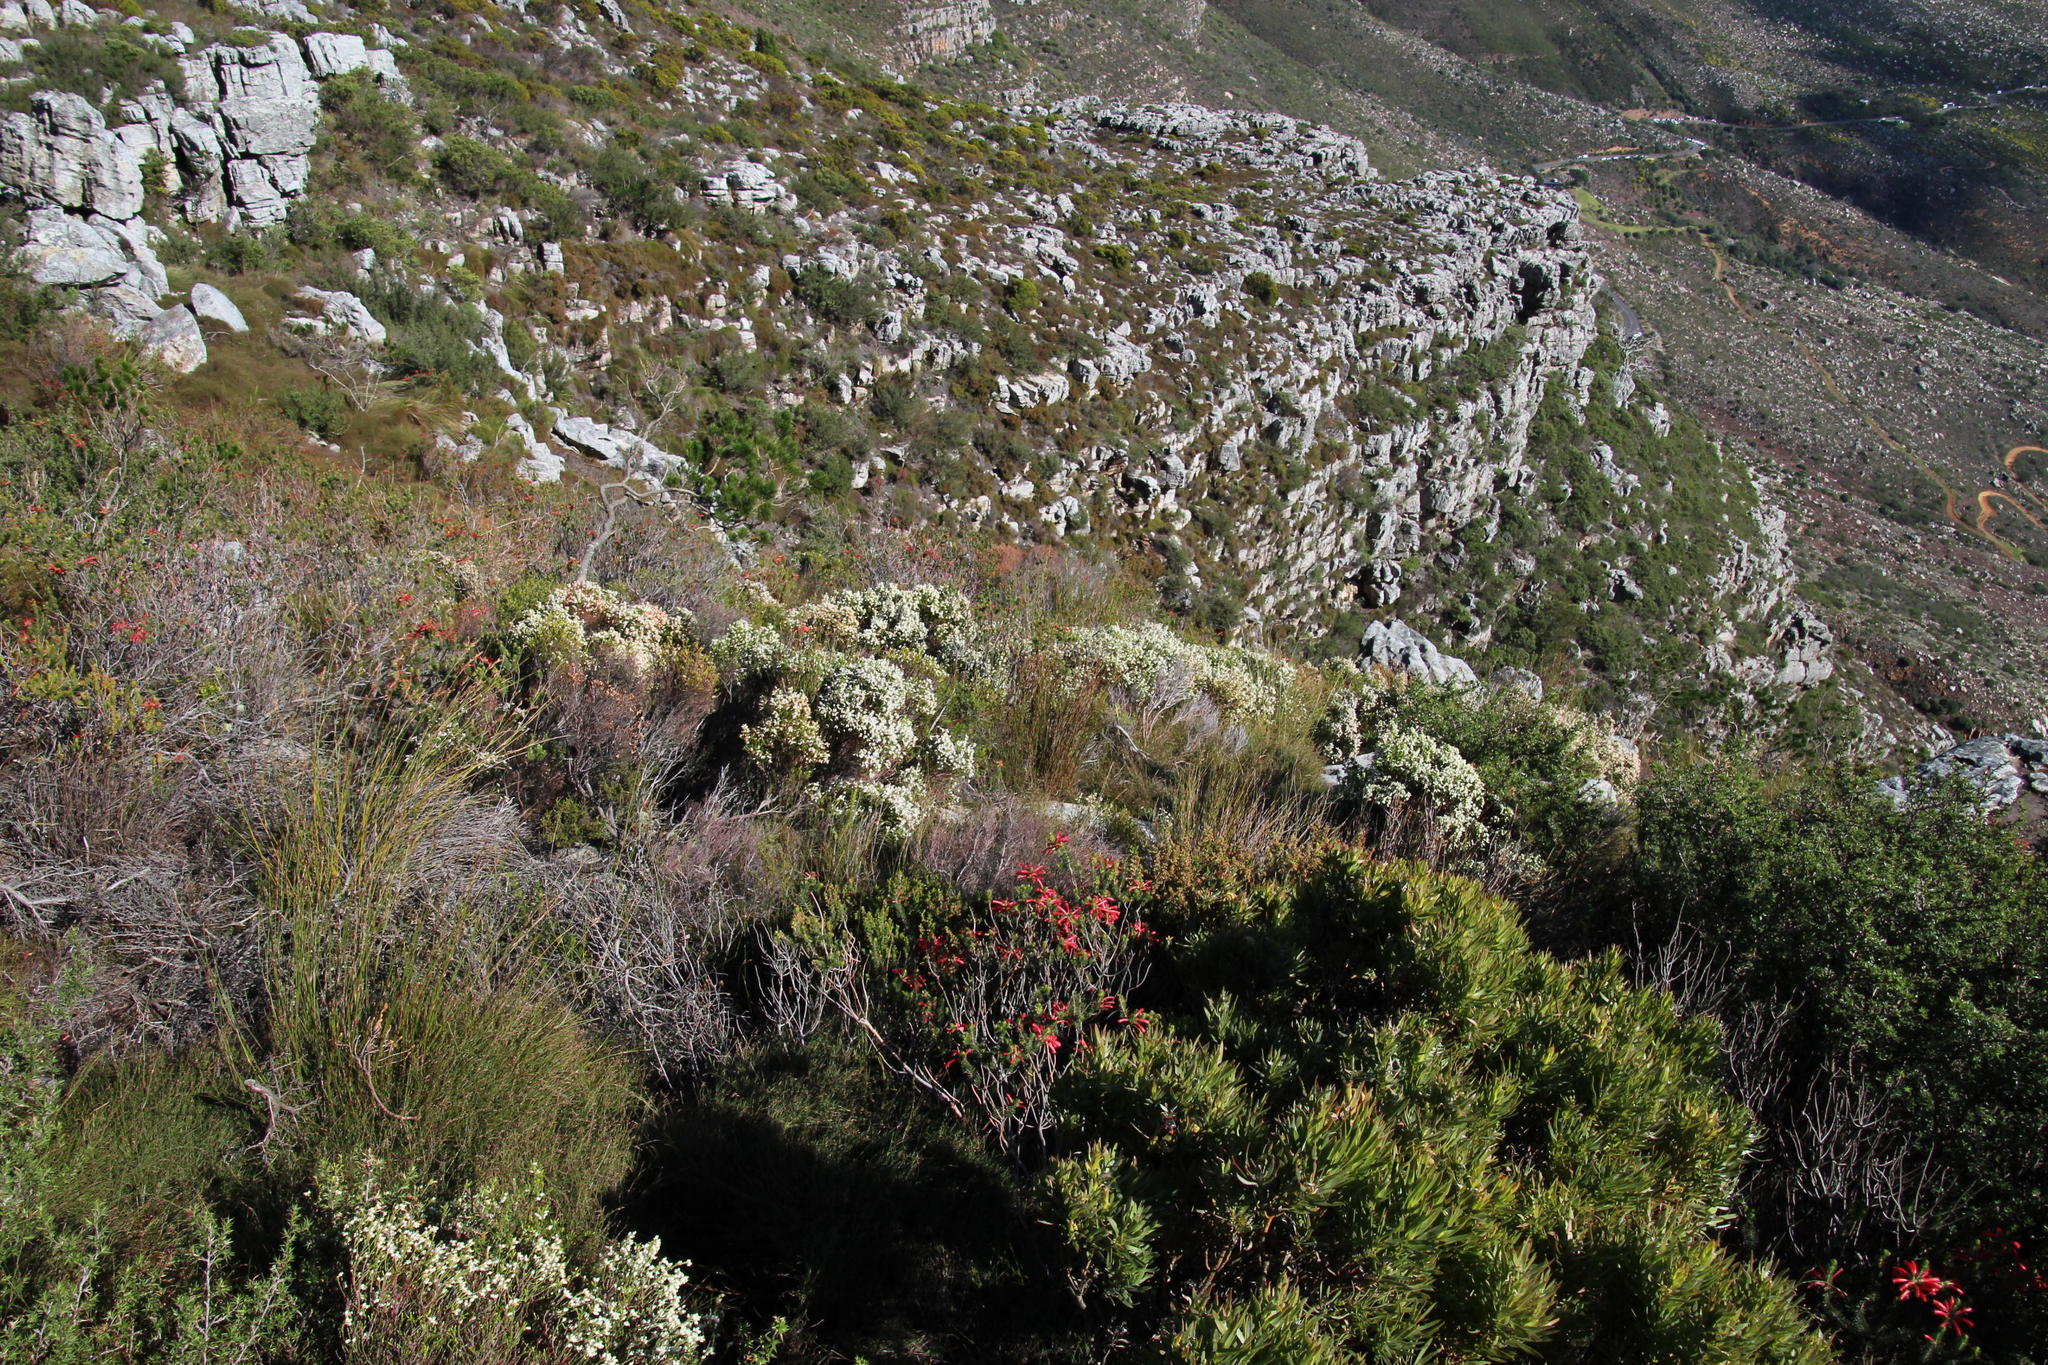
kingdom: Plantae
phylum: Tracheophyta
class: Magnoliopsida
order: Ericales
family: Ericaceae
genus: Erica
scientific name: Erica abietina
